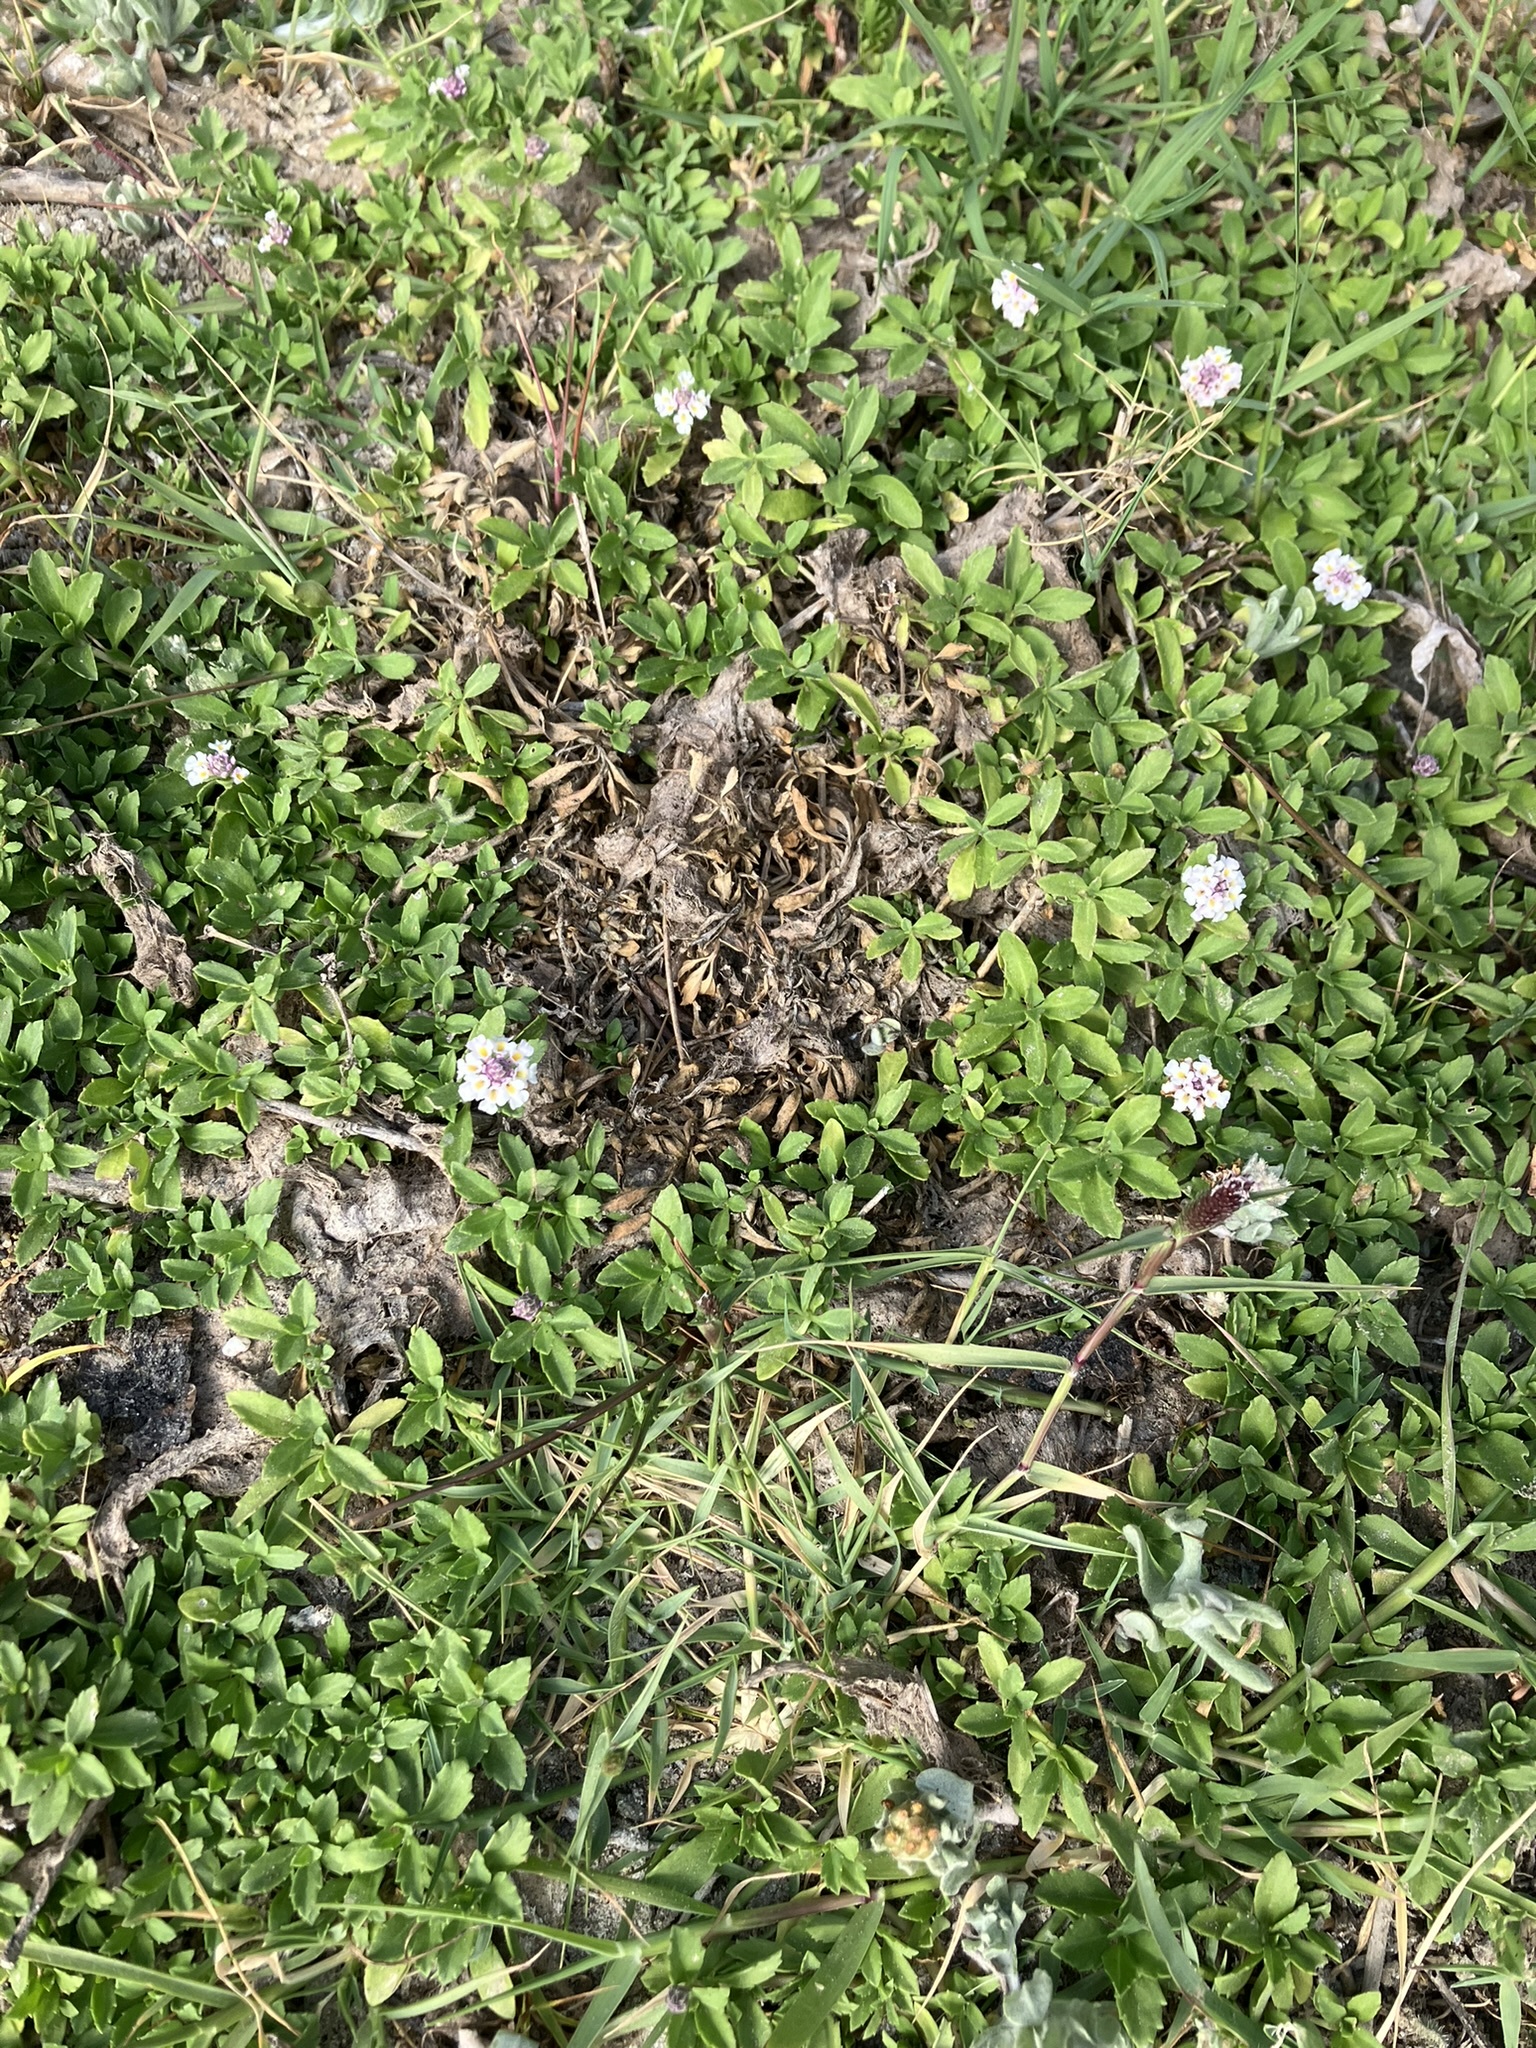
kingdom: Plantae
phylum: Tracheophyta
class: Magnoliopsida
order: Lamiales
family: Verbenaceae
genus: Phyla
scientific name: Phyla nodiflora
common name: Frogfruit
